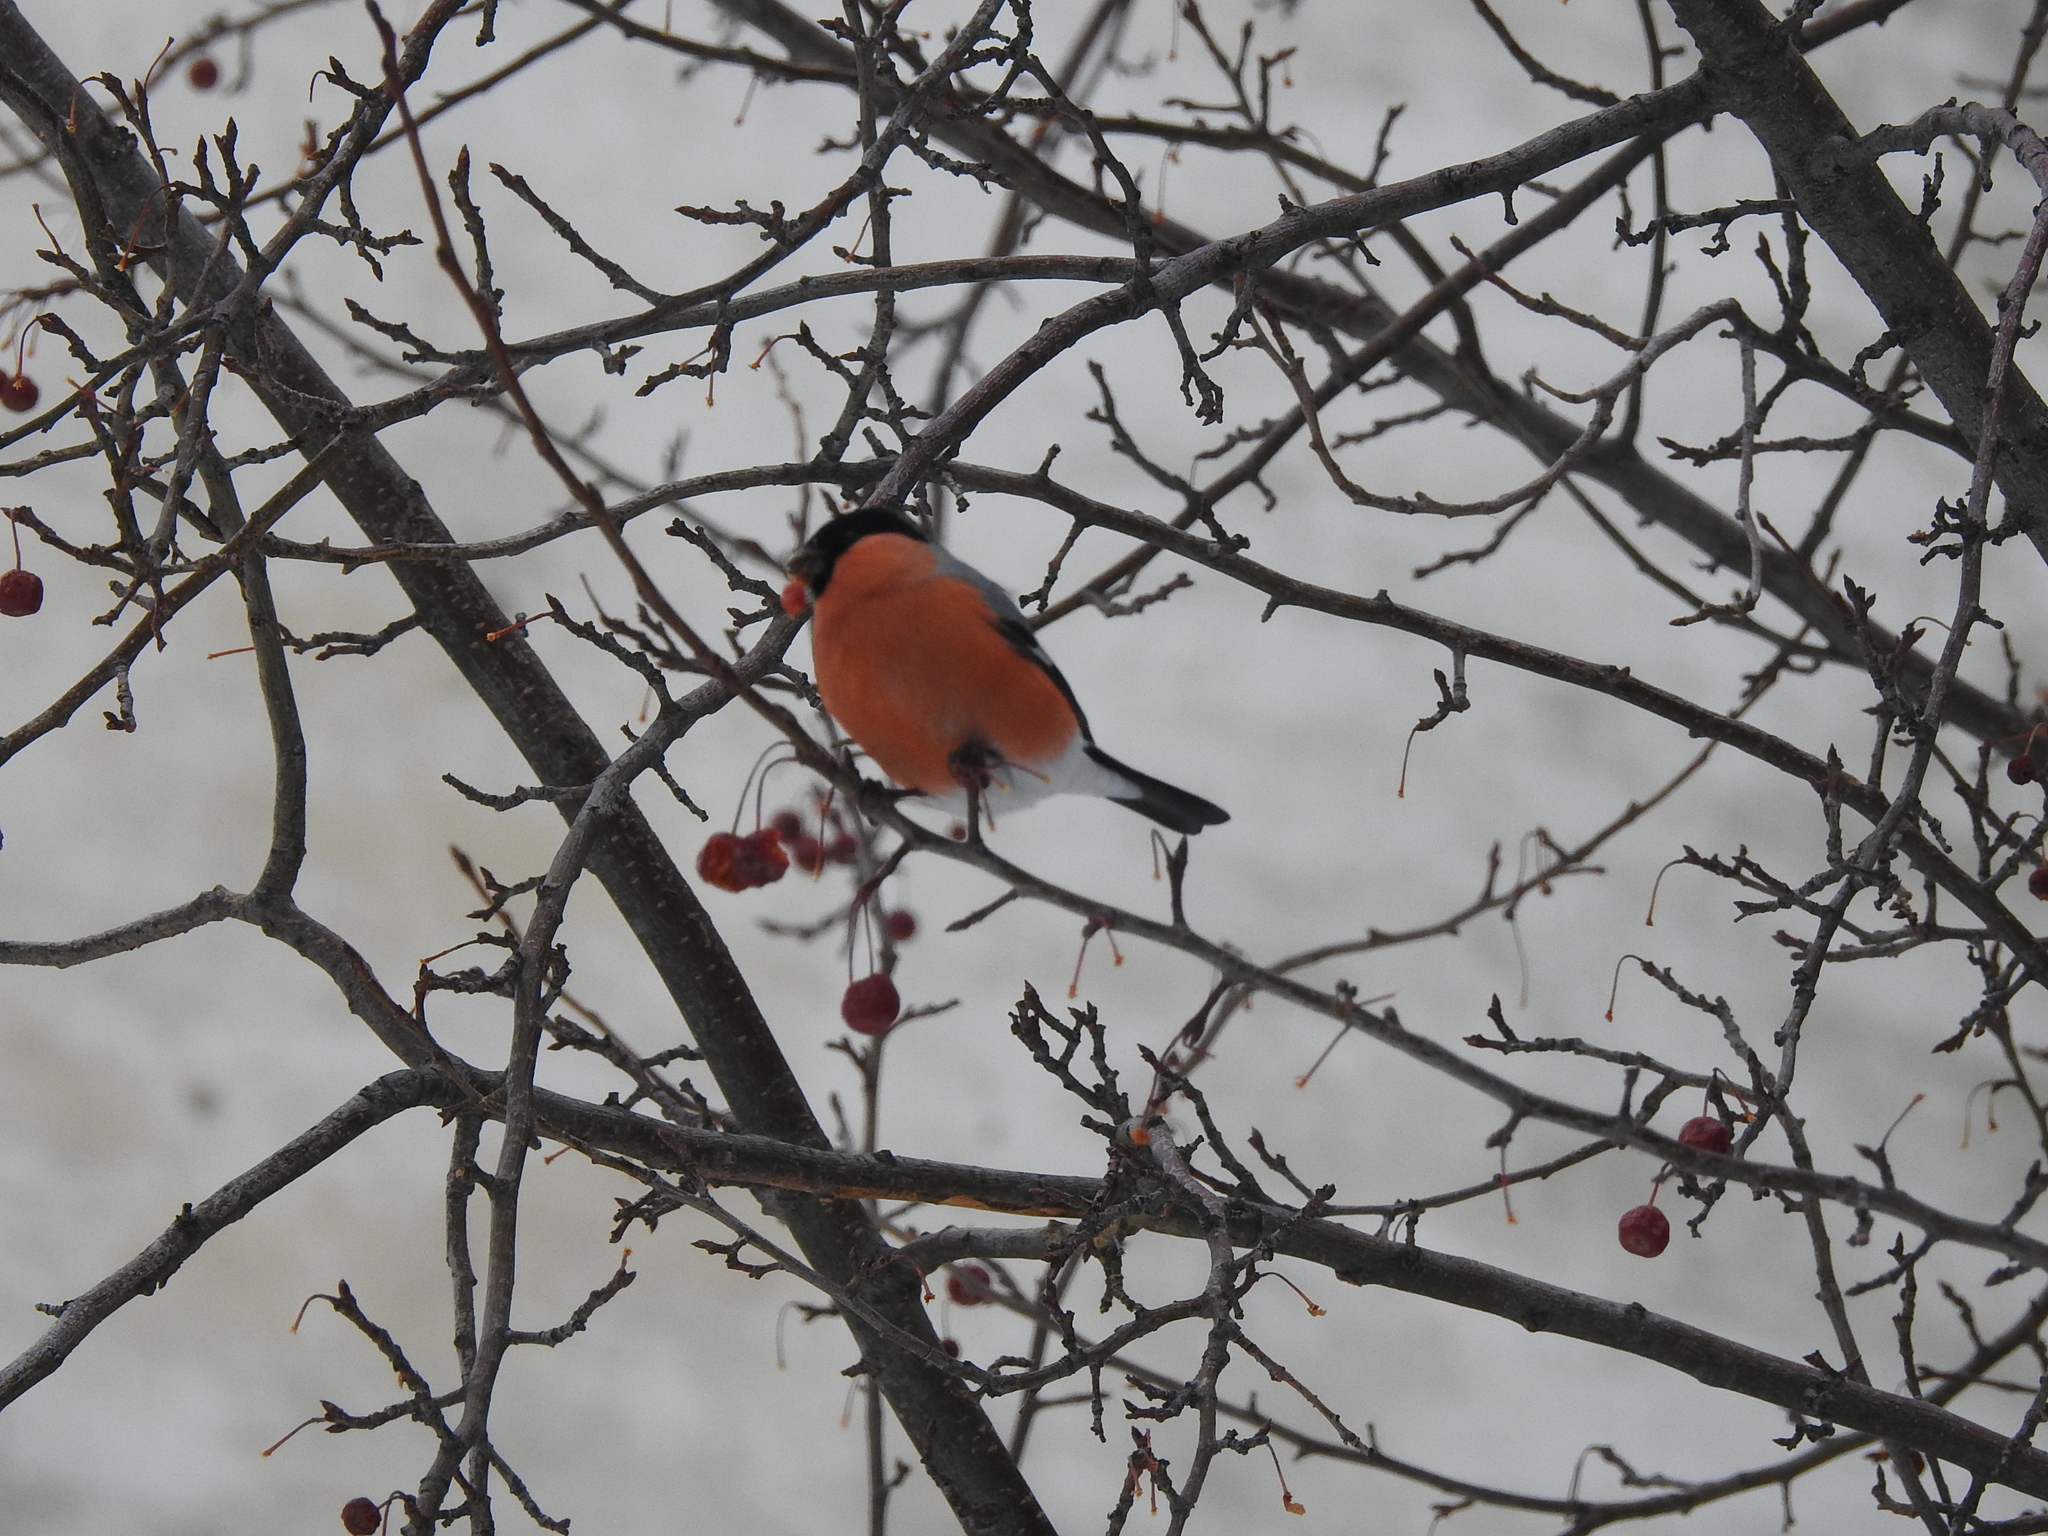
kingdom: Animalia
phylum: Chordata
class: Aves
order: Passeriformes
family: Fringillidae
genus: Pyrrhula
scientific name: Pyrrhula pyrrhula
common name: Eurasian bullfinch
